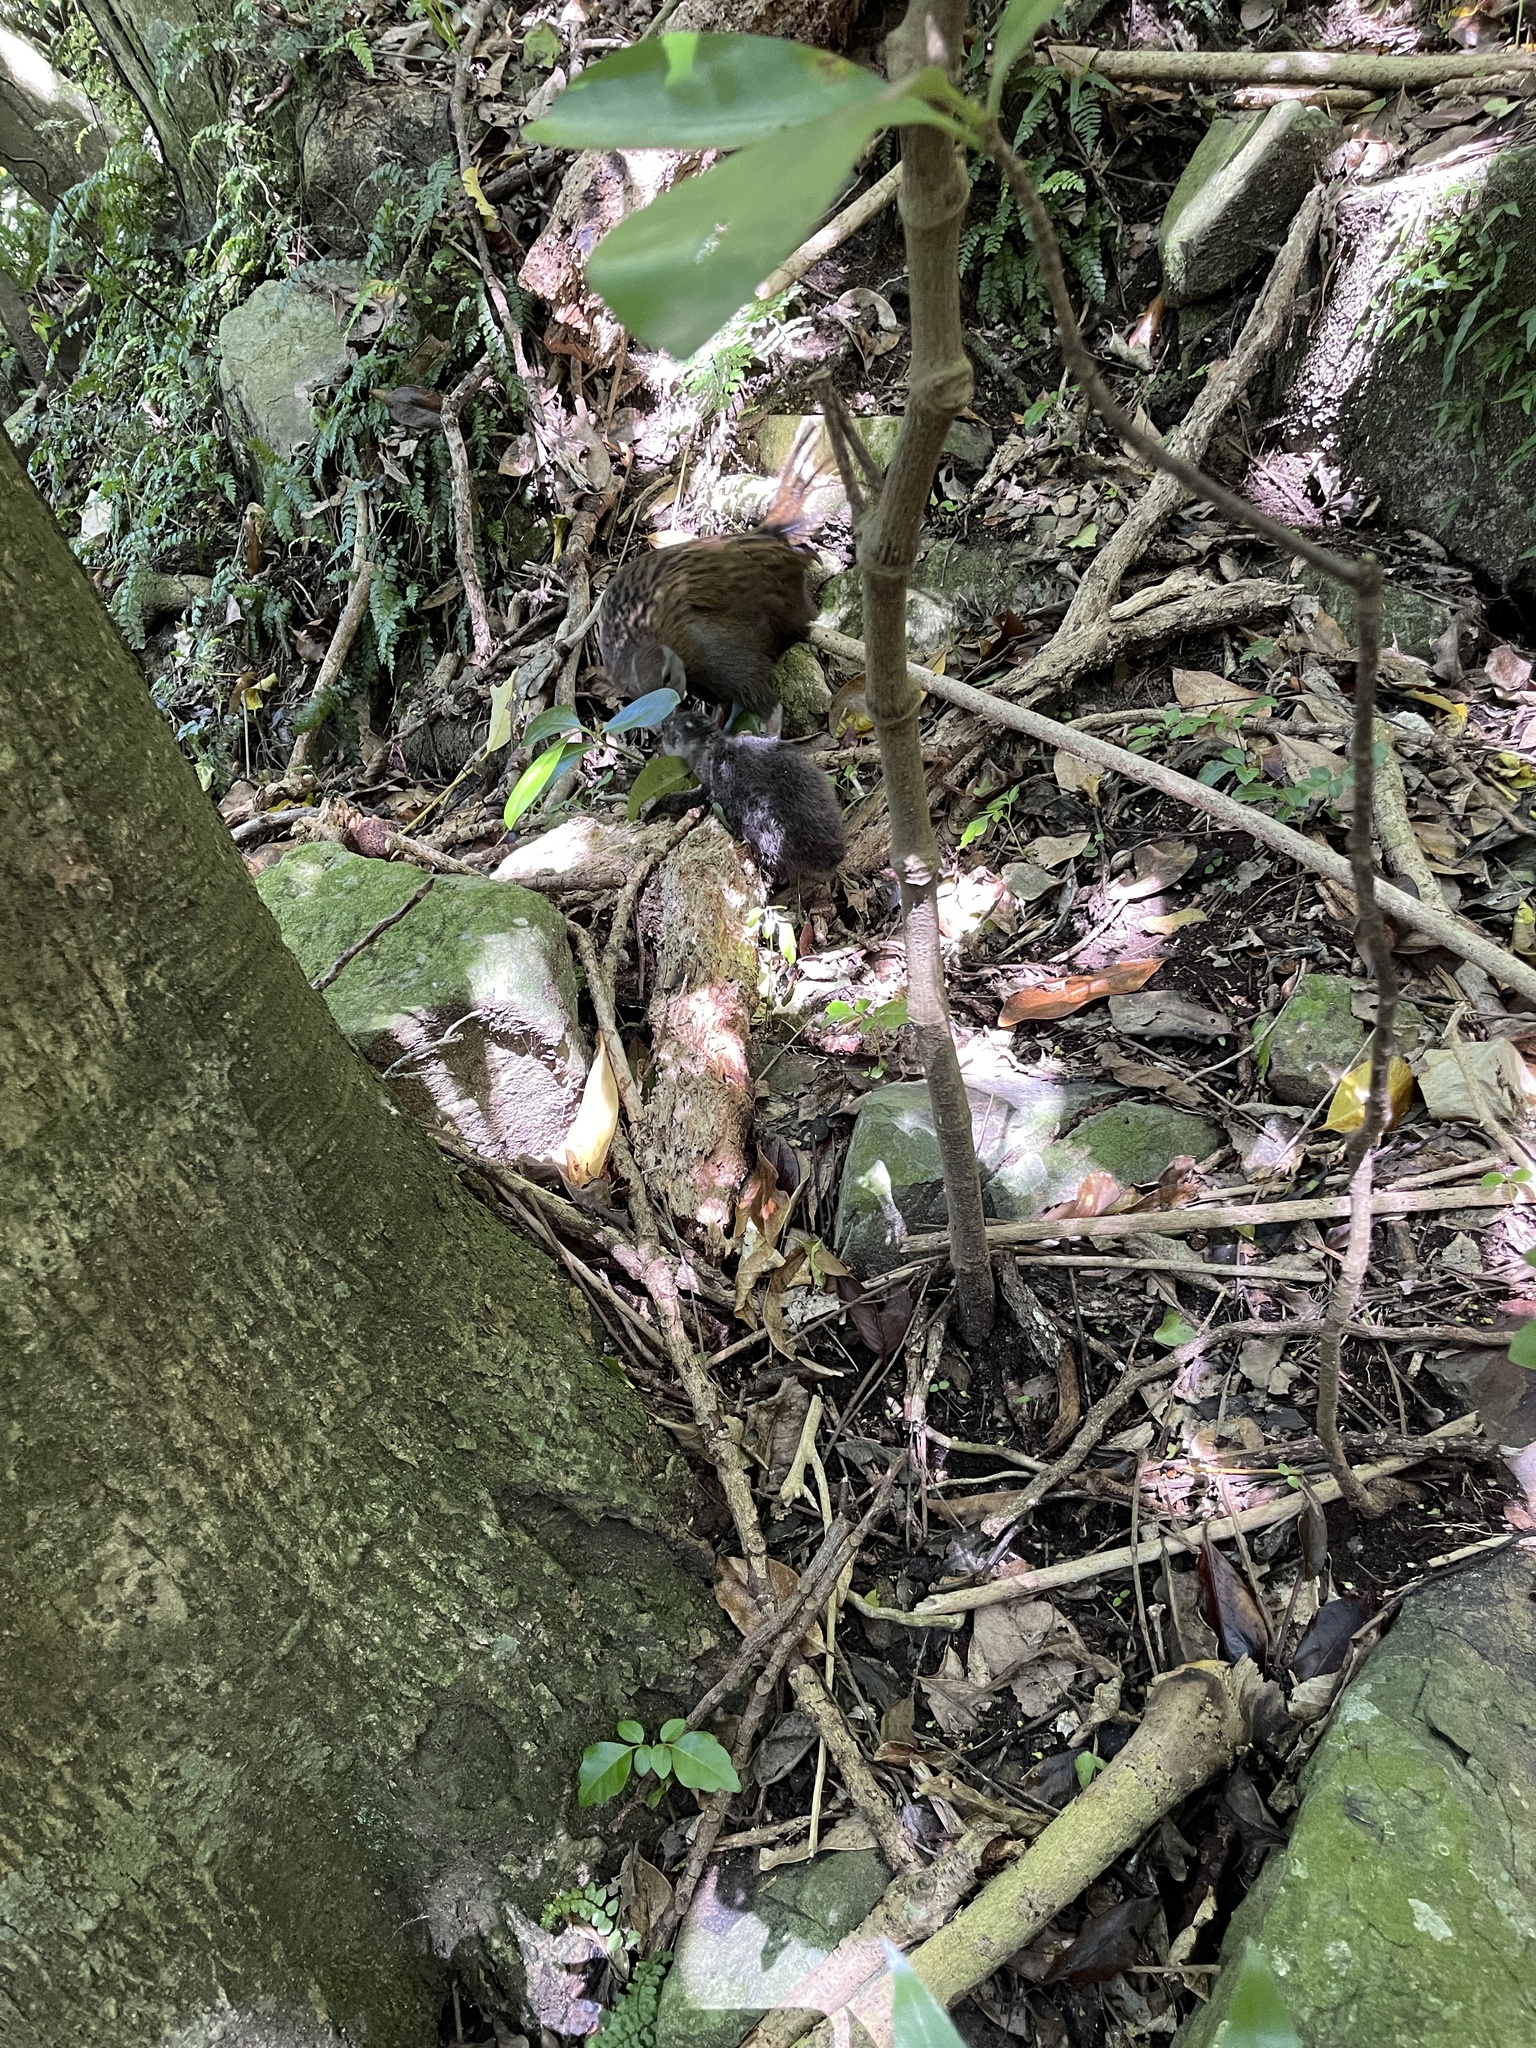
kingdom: Animalia
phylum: Chordata
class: Aves
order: Sphenisciformes
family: Spheniscidae
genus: Eudyptula
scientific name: Eudyptula minor
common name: Little penguin
